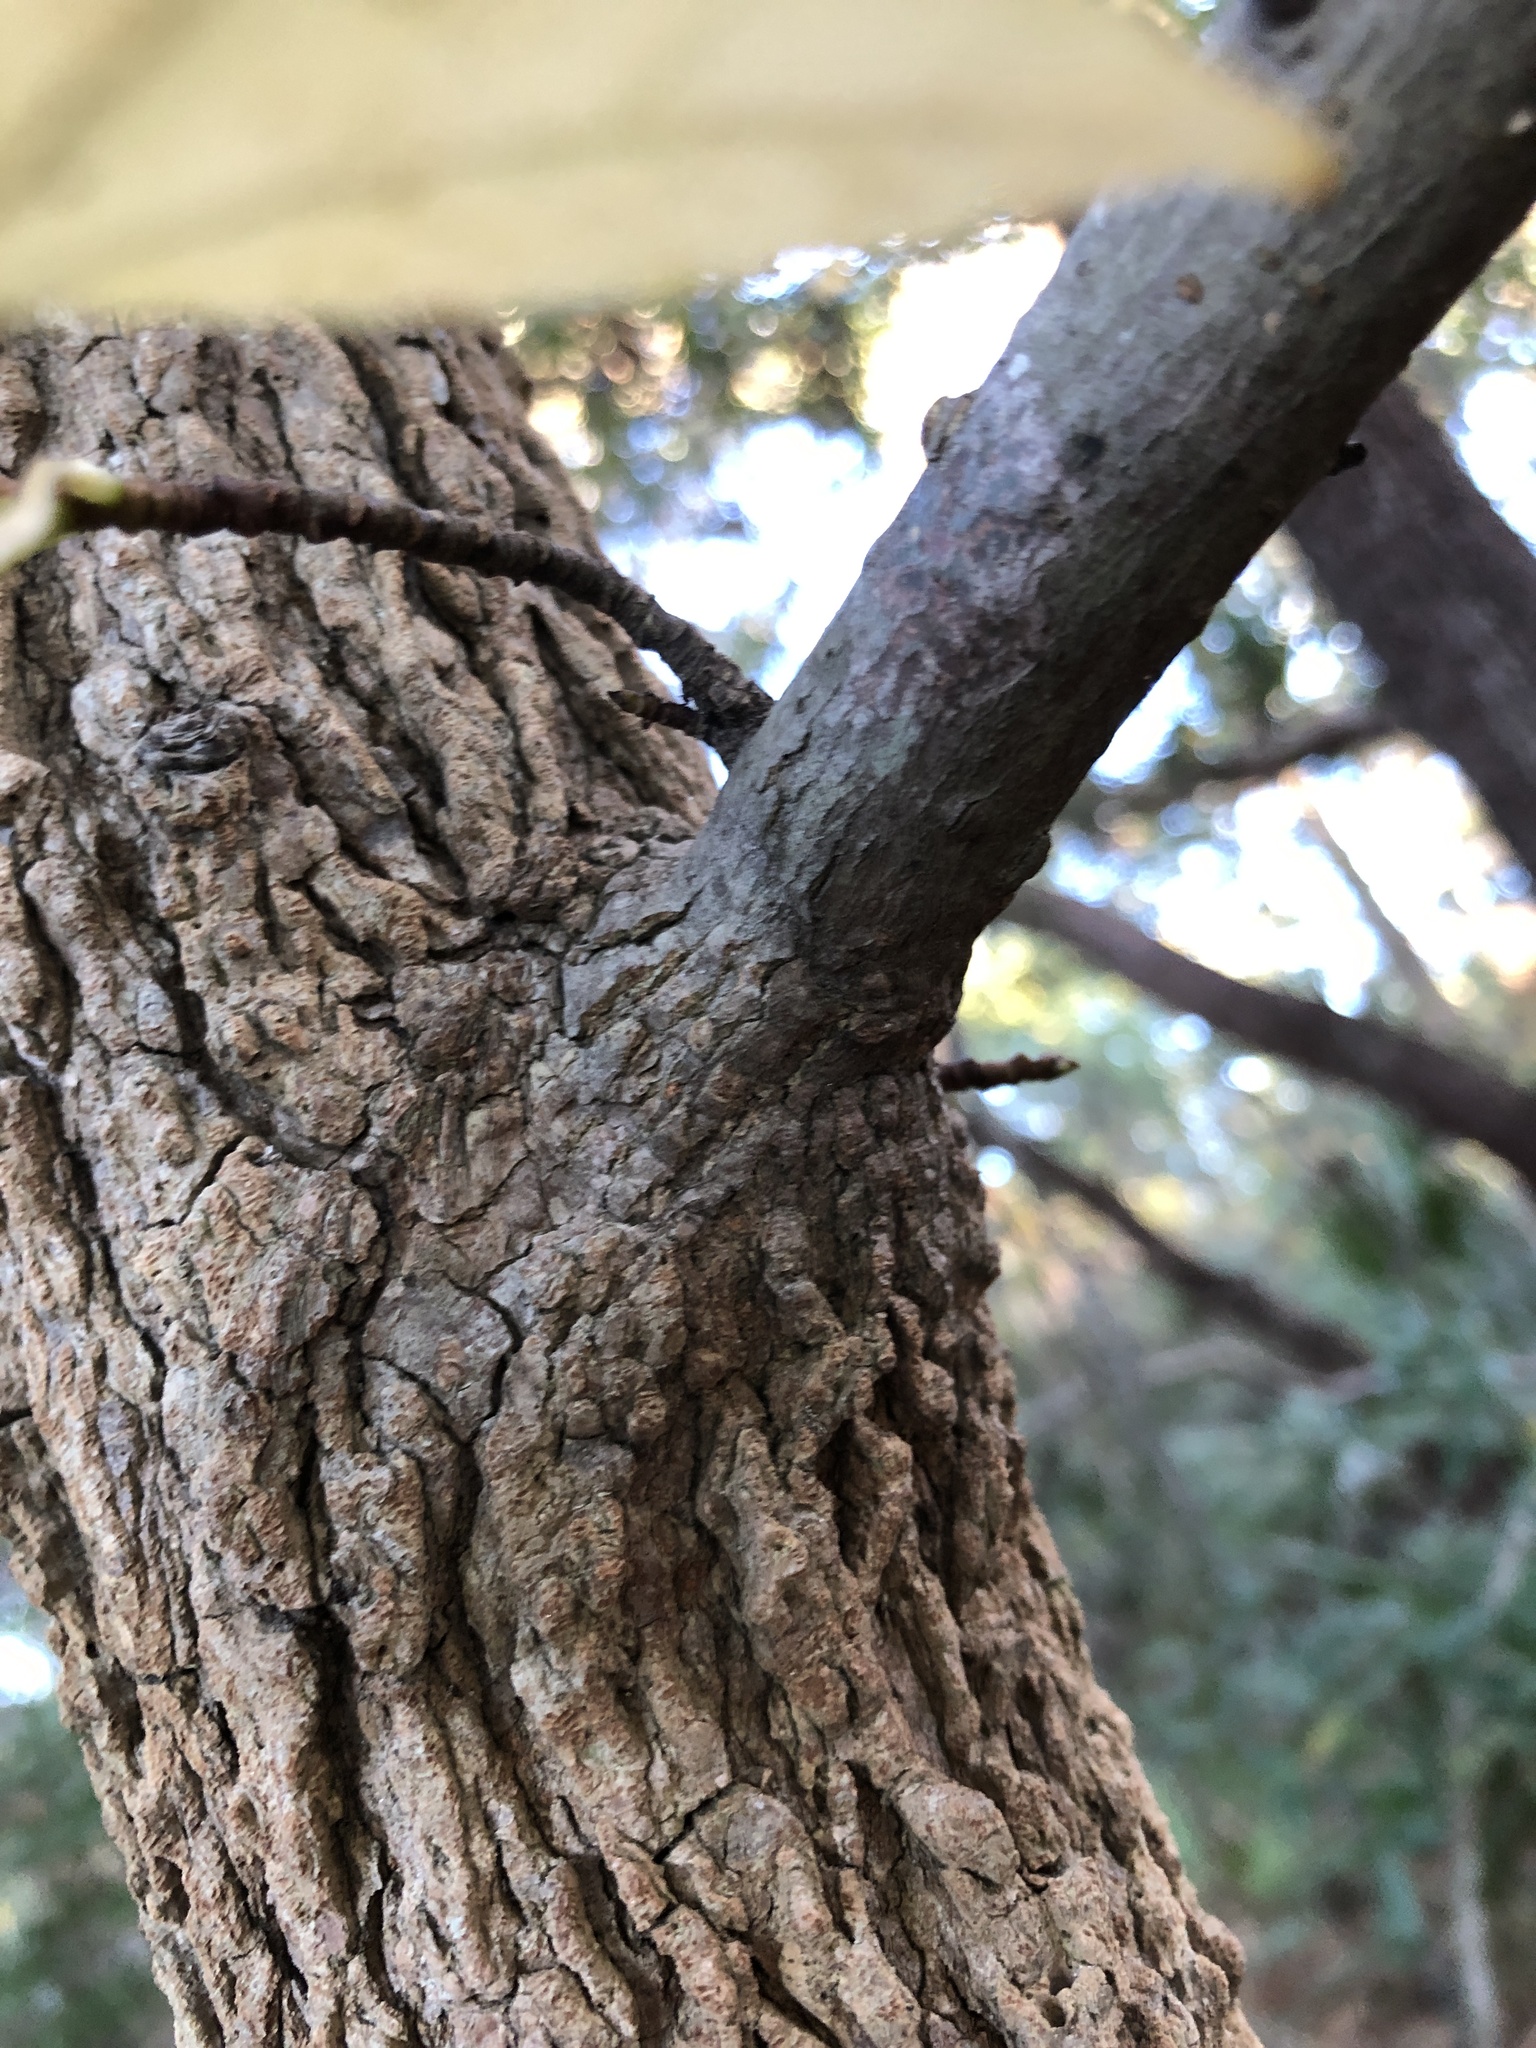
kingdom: Plantae
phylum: Tracheophyta
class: Magnoliopsida
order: Saxifragales
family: Altingiaceae
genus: Liquidambar
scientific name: Liquidambar styraciflua
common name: Sweet gum
